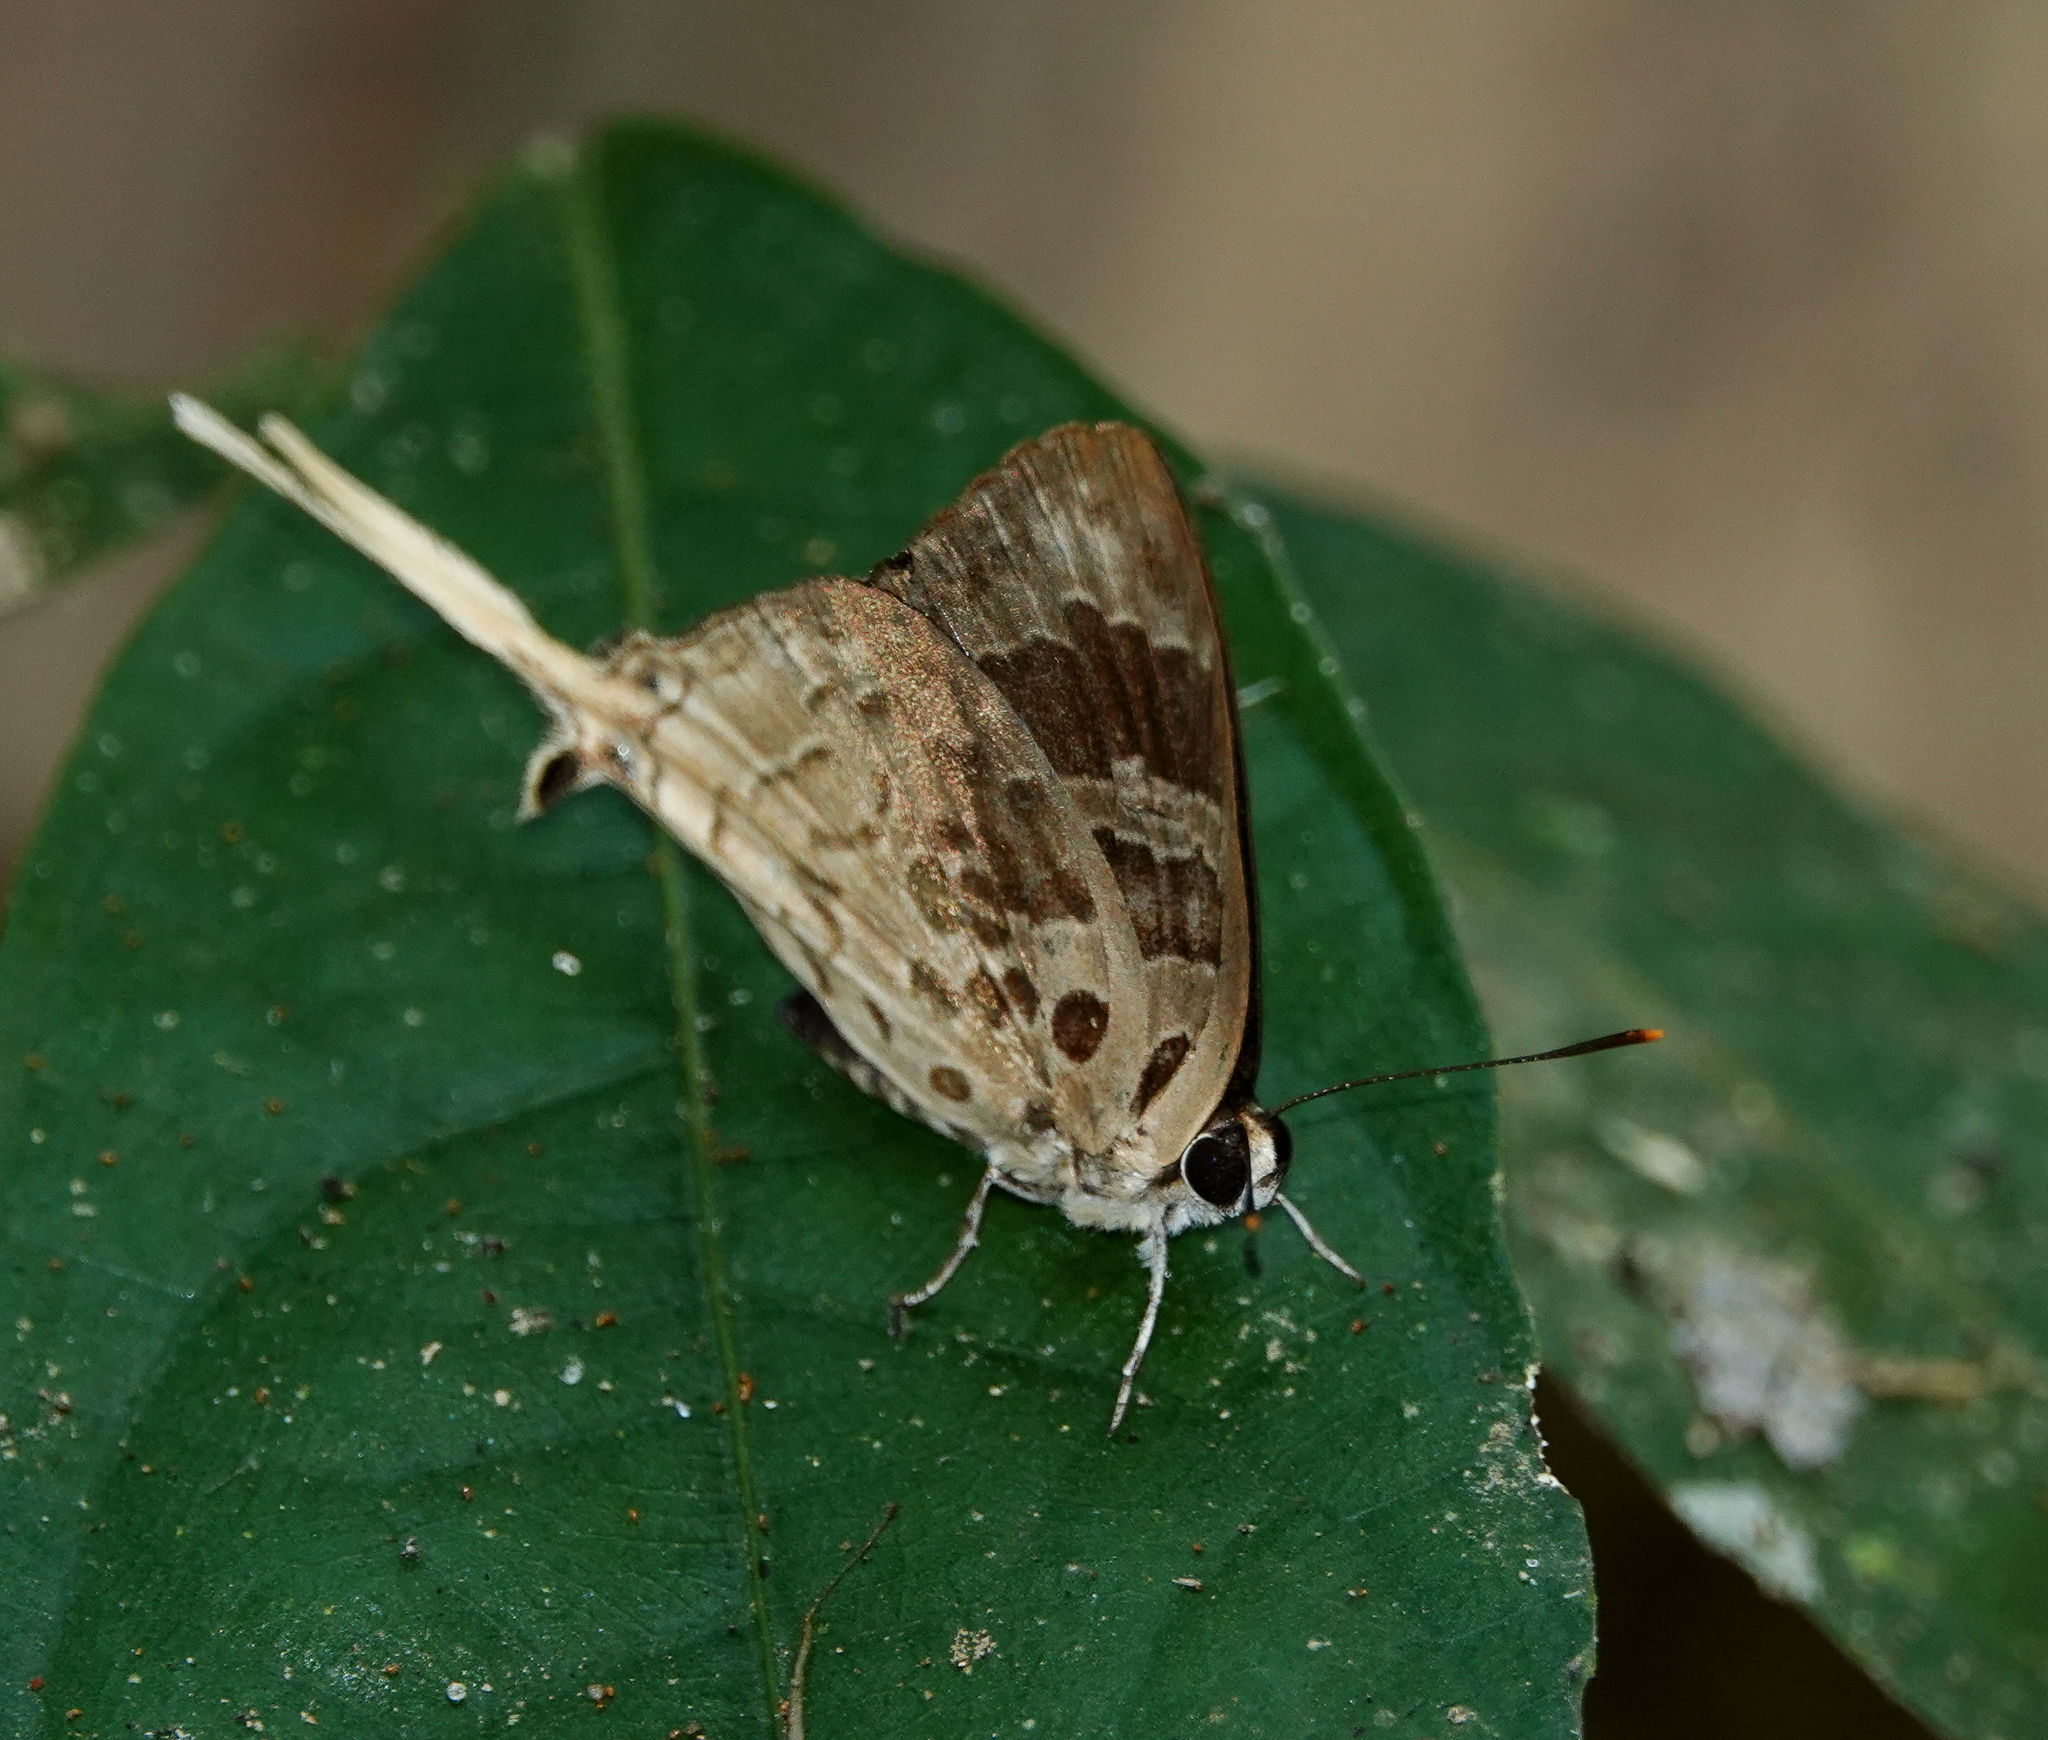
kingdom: Animalia
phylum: Arthropoda
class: Insecta
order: Lepidoptera
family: Lycaenidae
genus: Bindahara
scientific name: Bindahara phocides
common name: Sword-tailed flash
